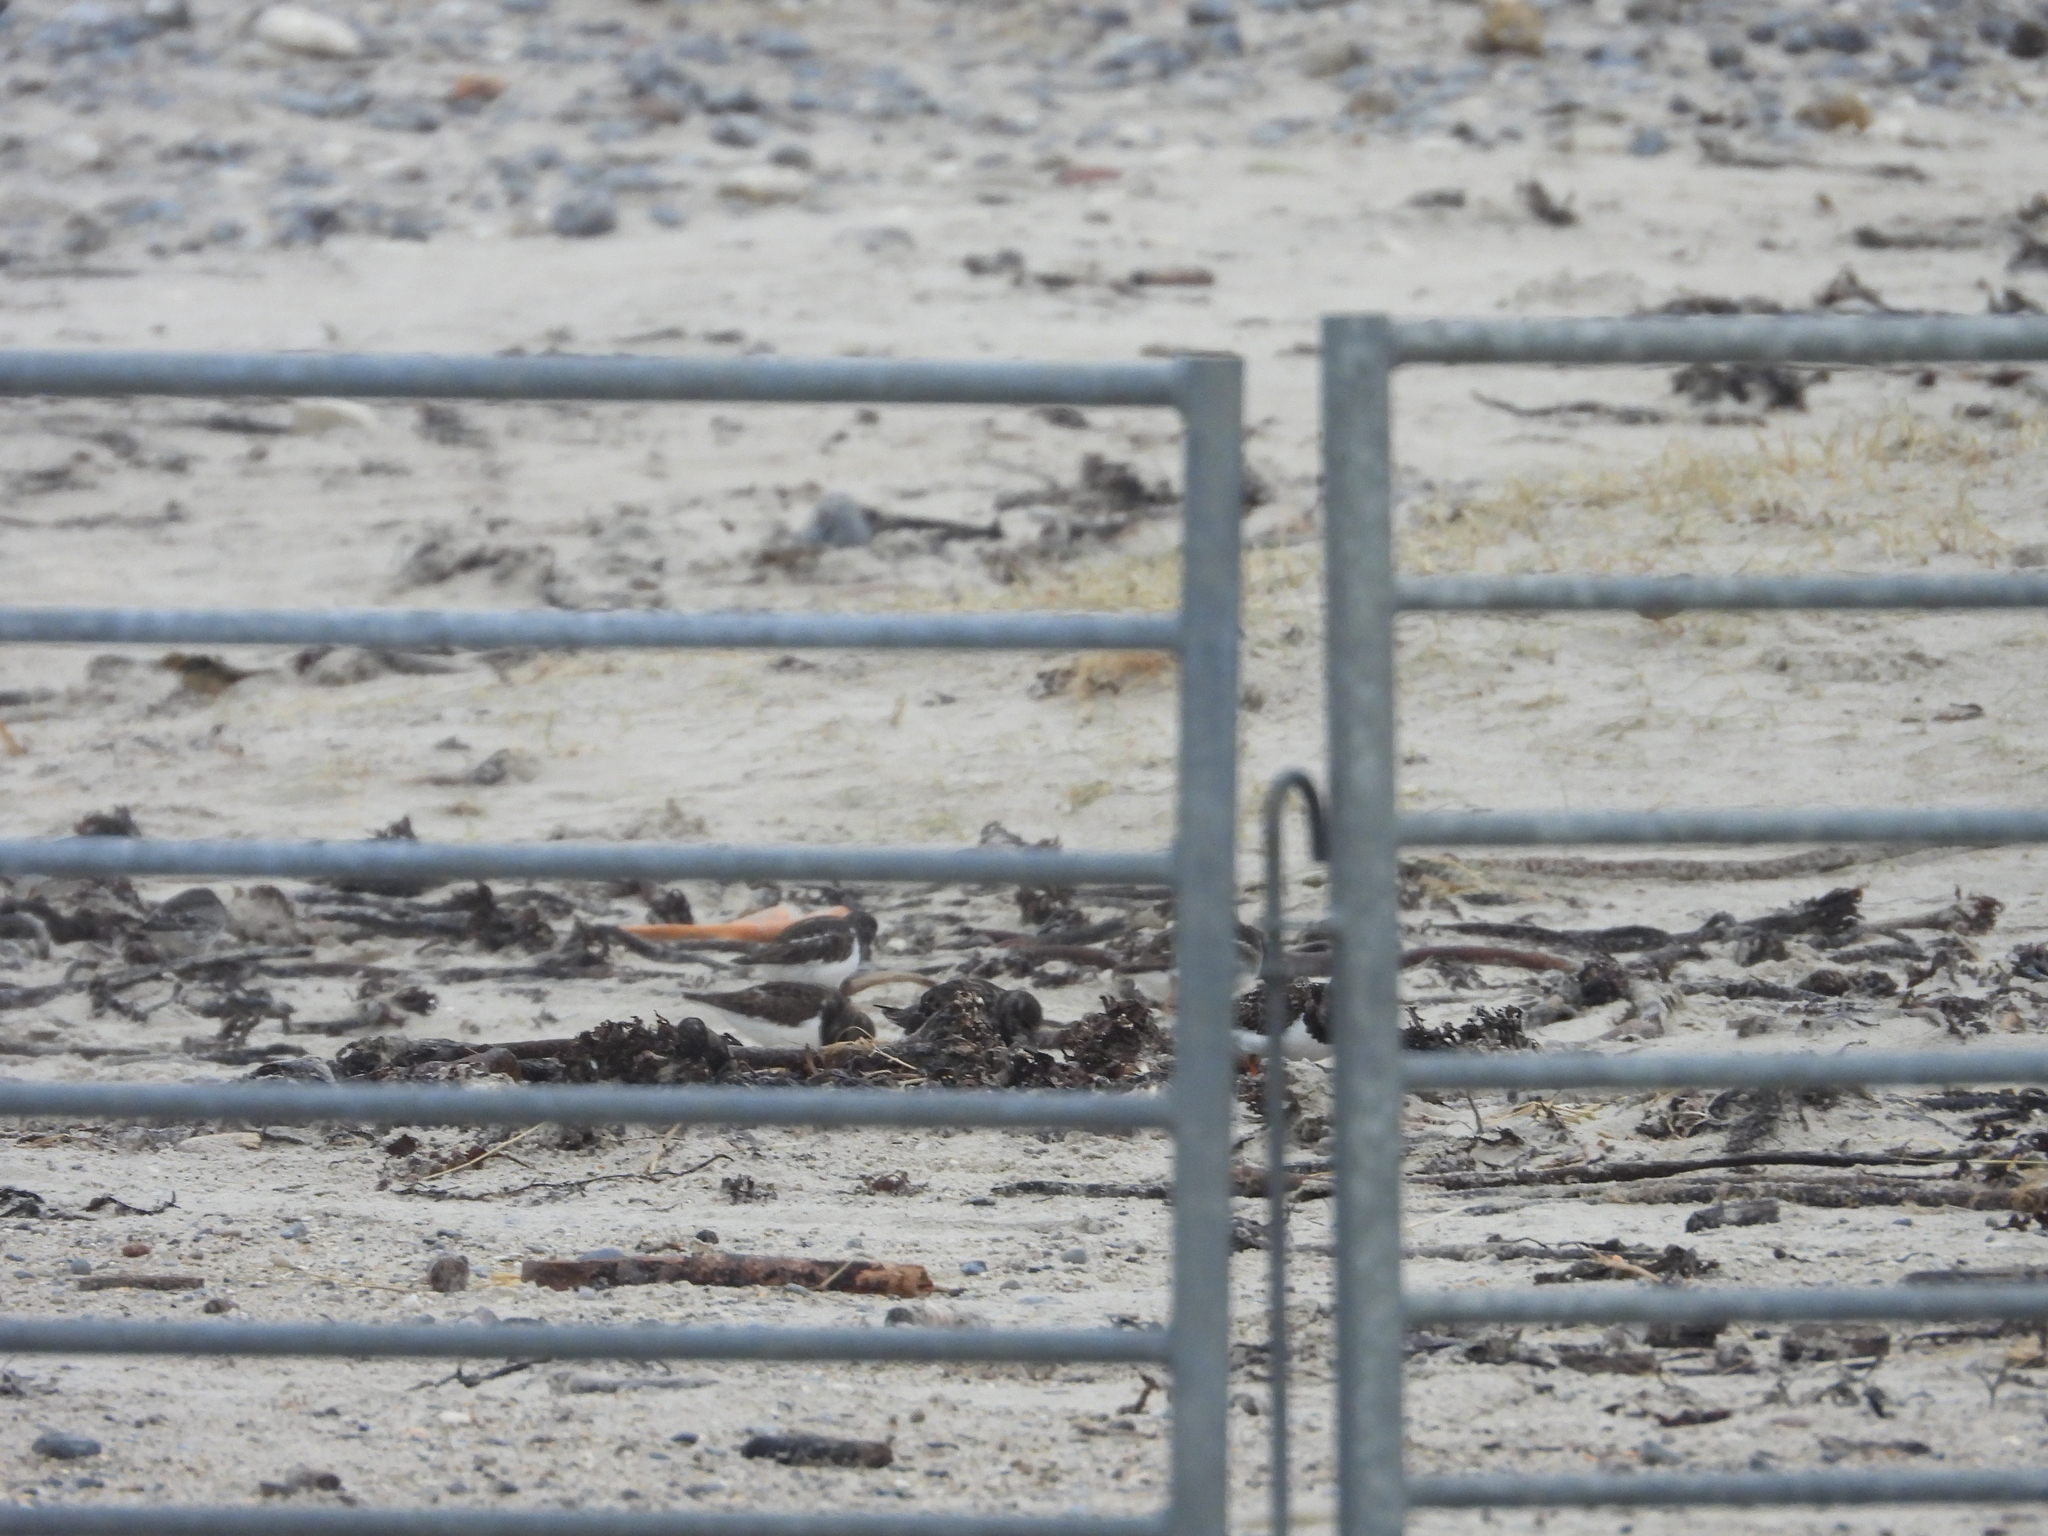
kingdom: Animalia
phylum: Chordata
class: Aves
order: Charadriiformes
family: Scolopacidae
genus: Arenaria
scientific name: Arenaria interpres
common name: Ruddy turnstone
